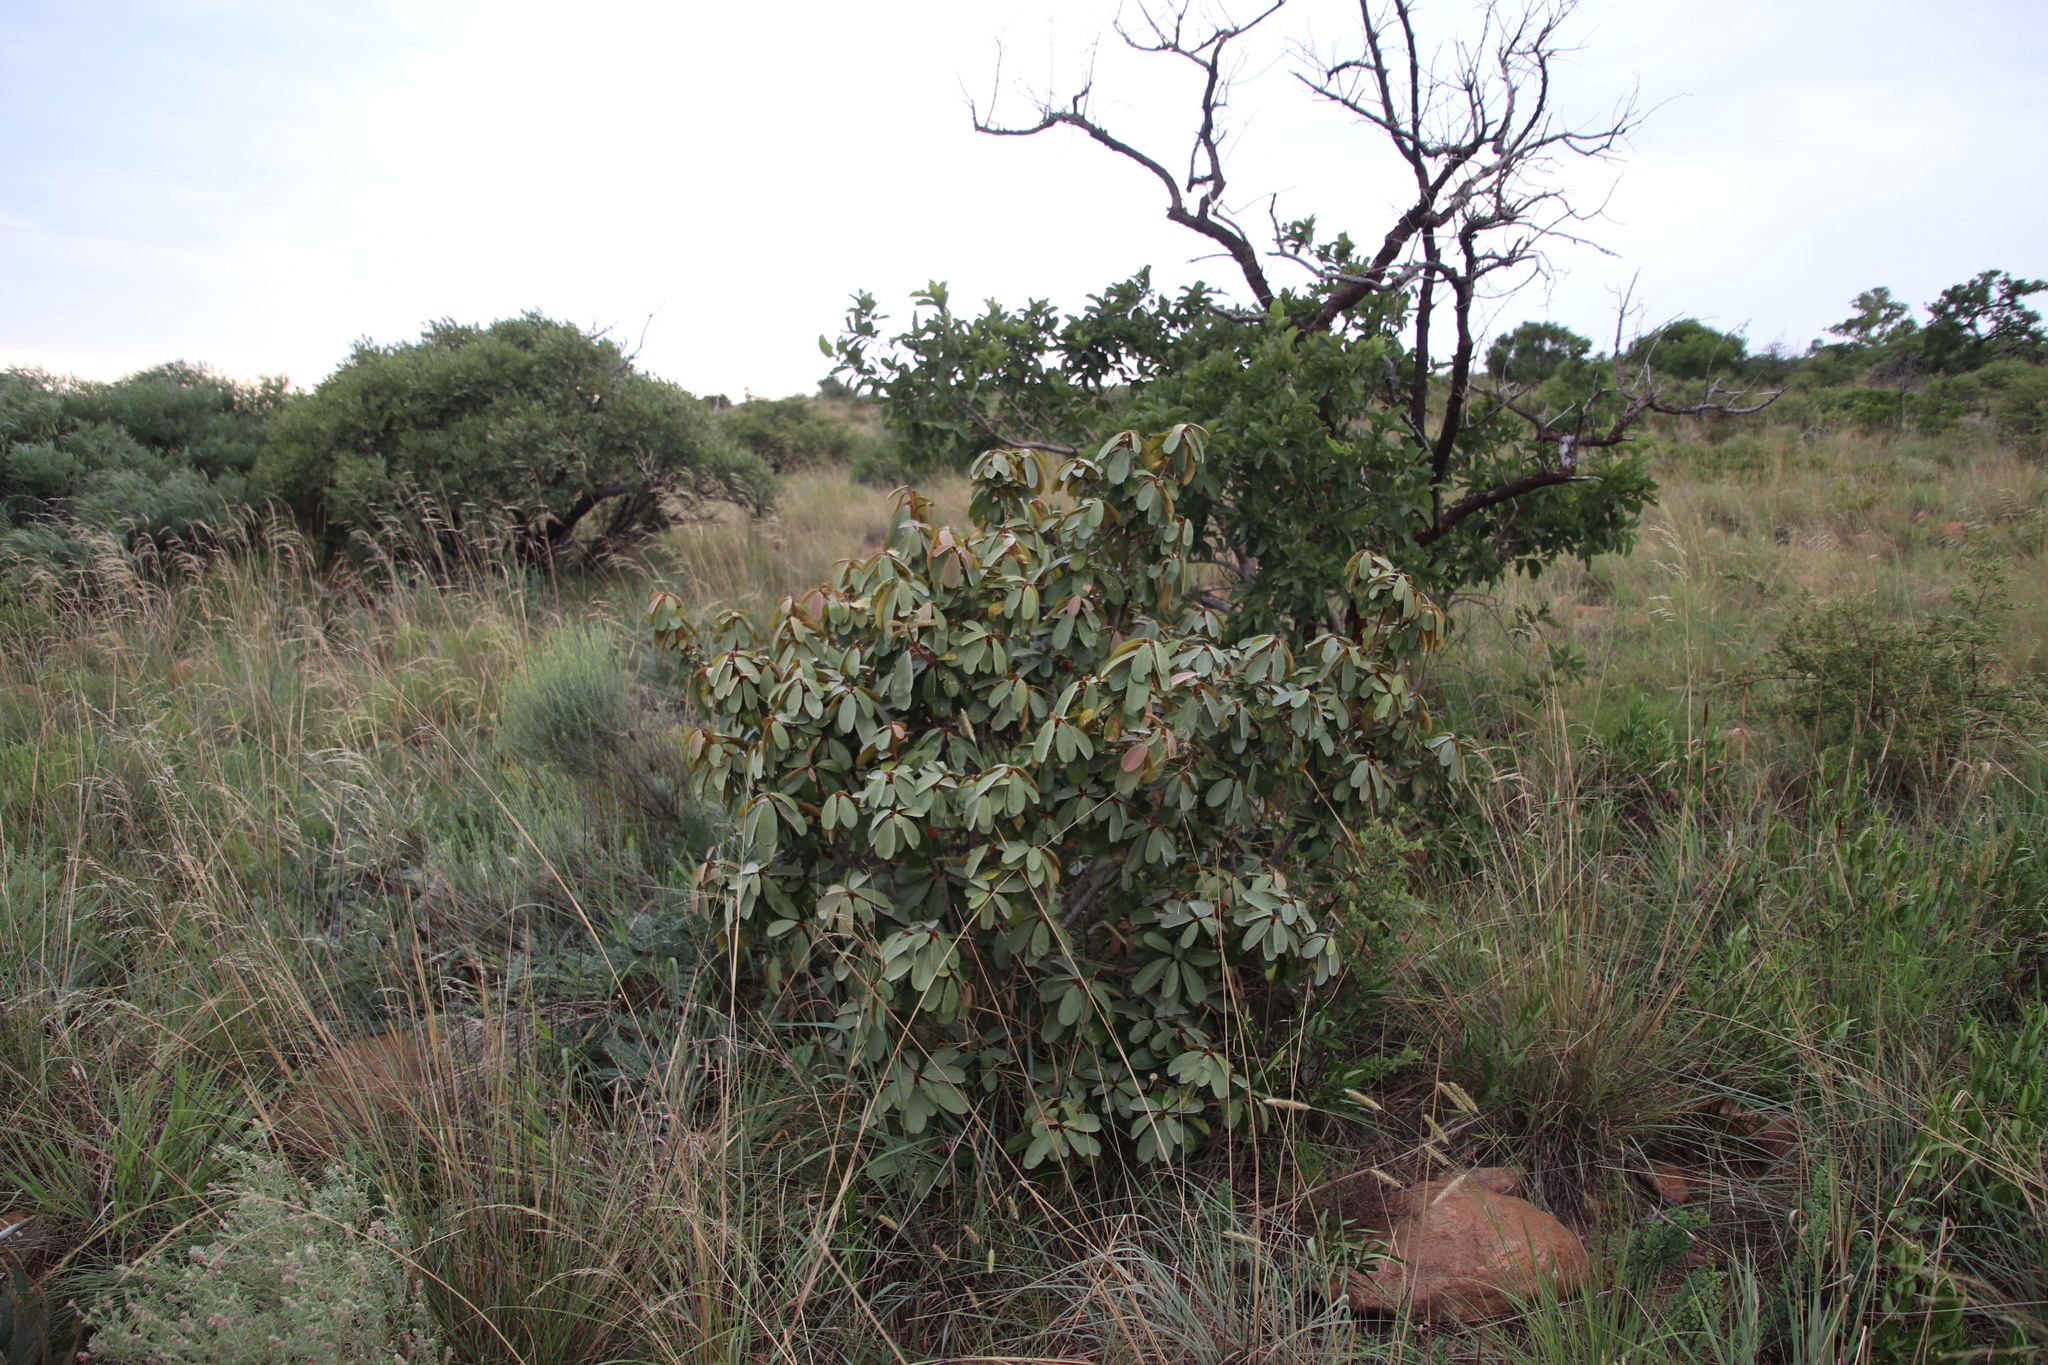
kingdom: Plantae
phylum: Tracheophyta
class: Magnoliopsida
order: Ericales
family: Sapotaceae
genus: Englerophytum
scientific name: Englerophytum magalismontanum
